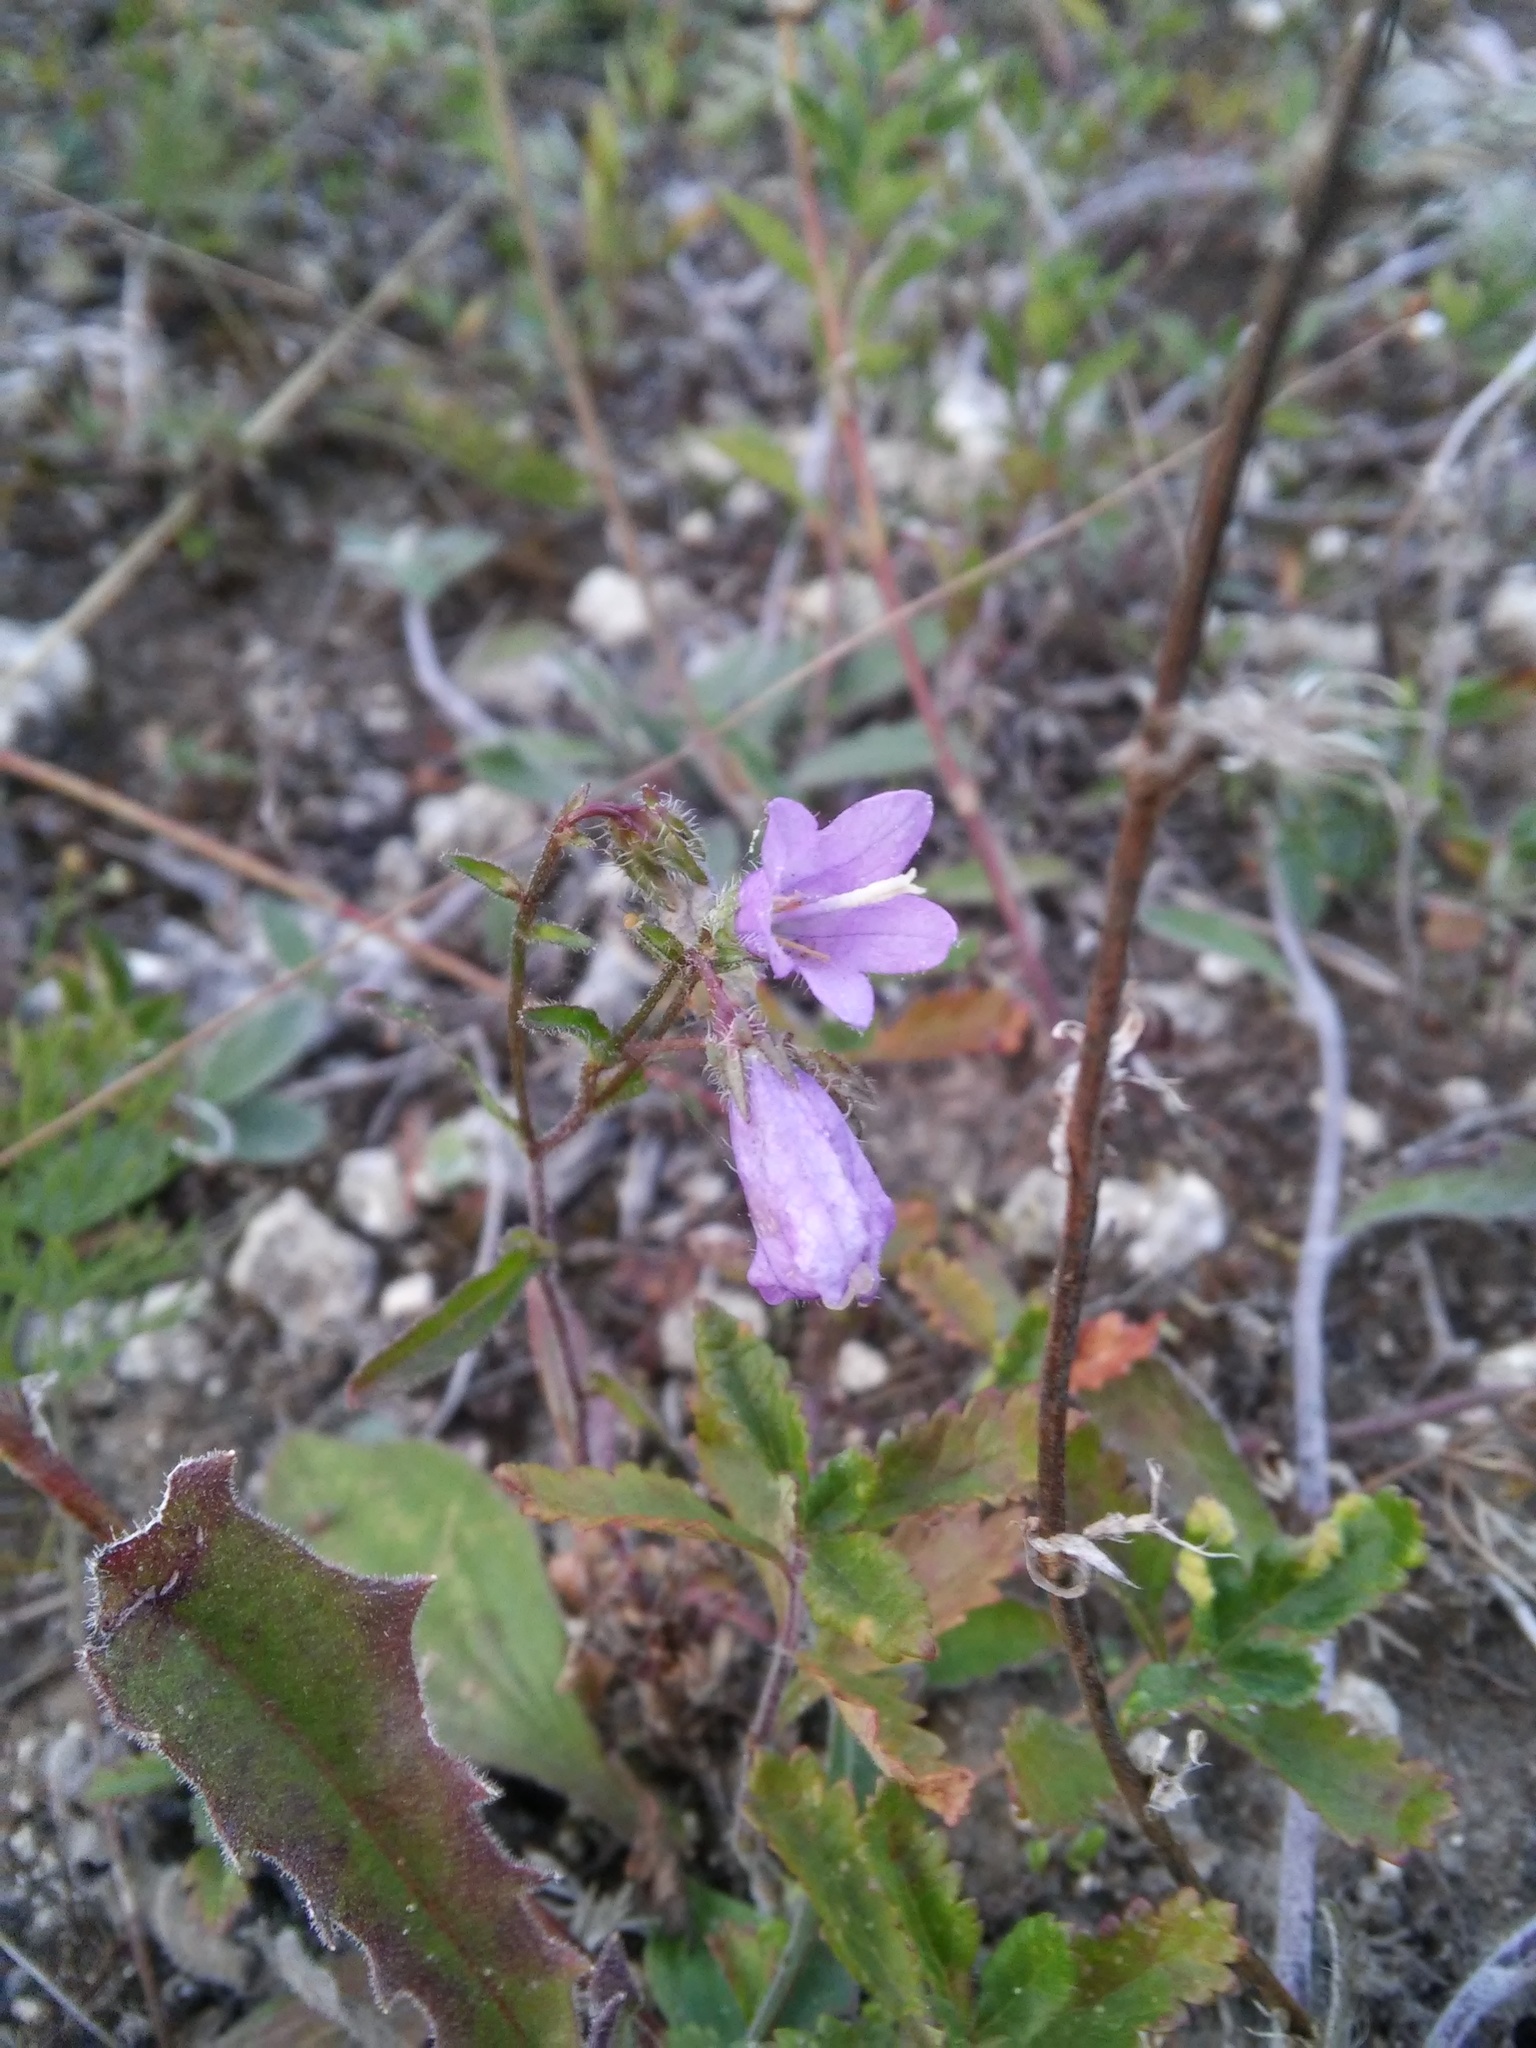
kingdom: Plantae
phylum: Tracheophyta
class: Magnoliopsida
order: Asterales
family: Campanulaceae
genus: Campanula
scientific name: Campanula sibirica
